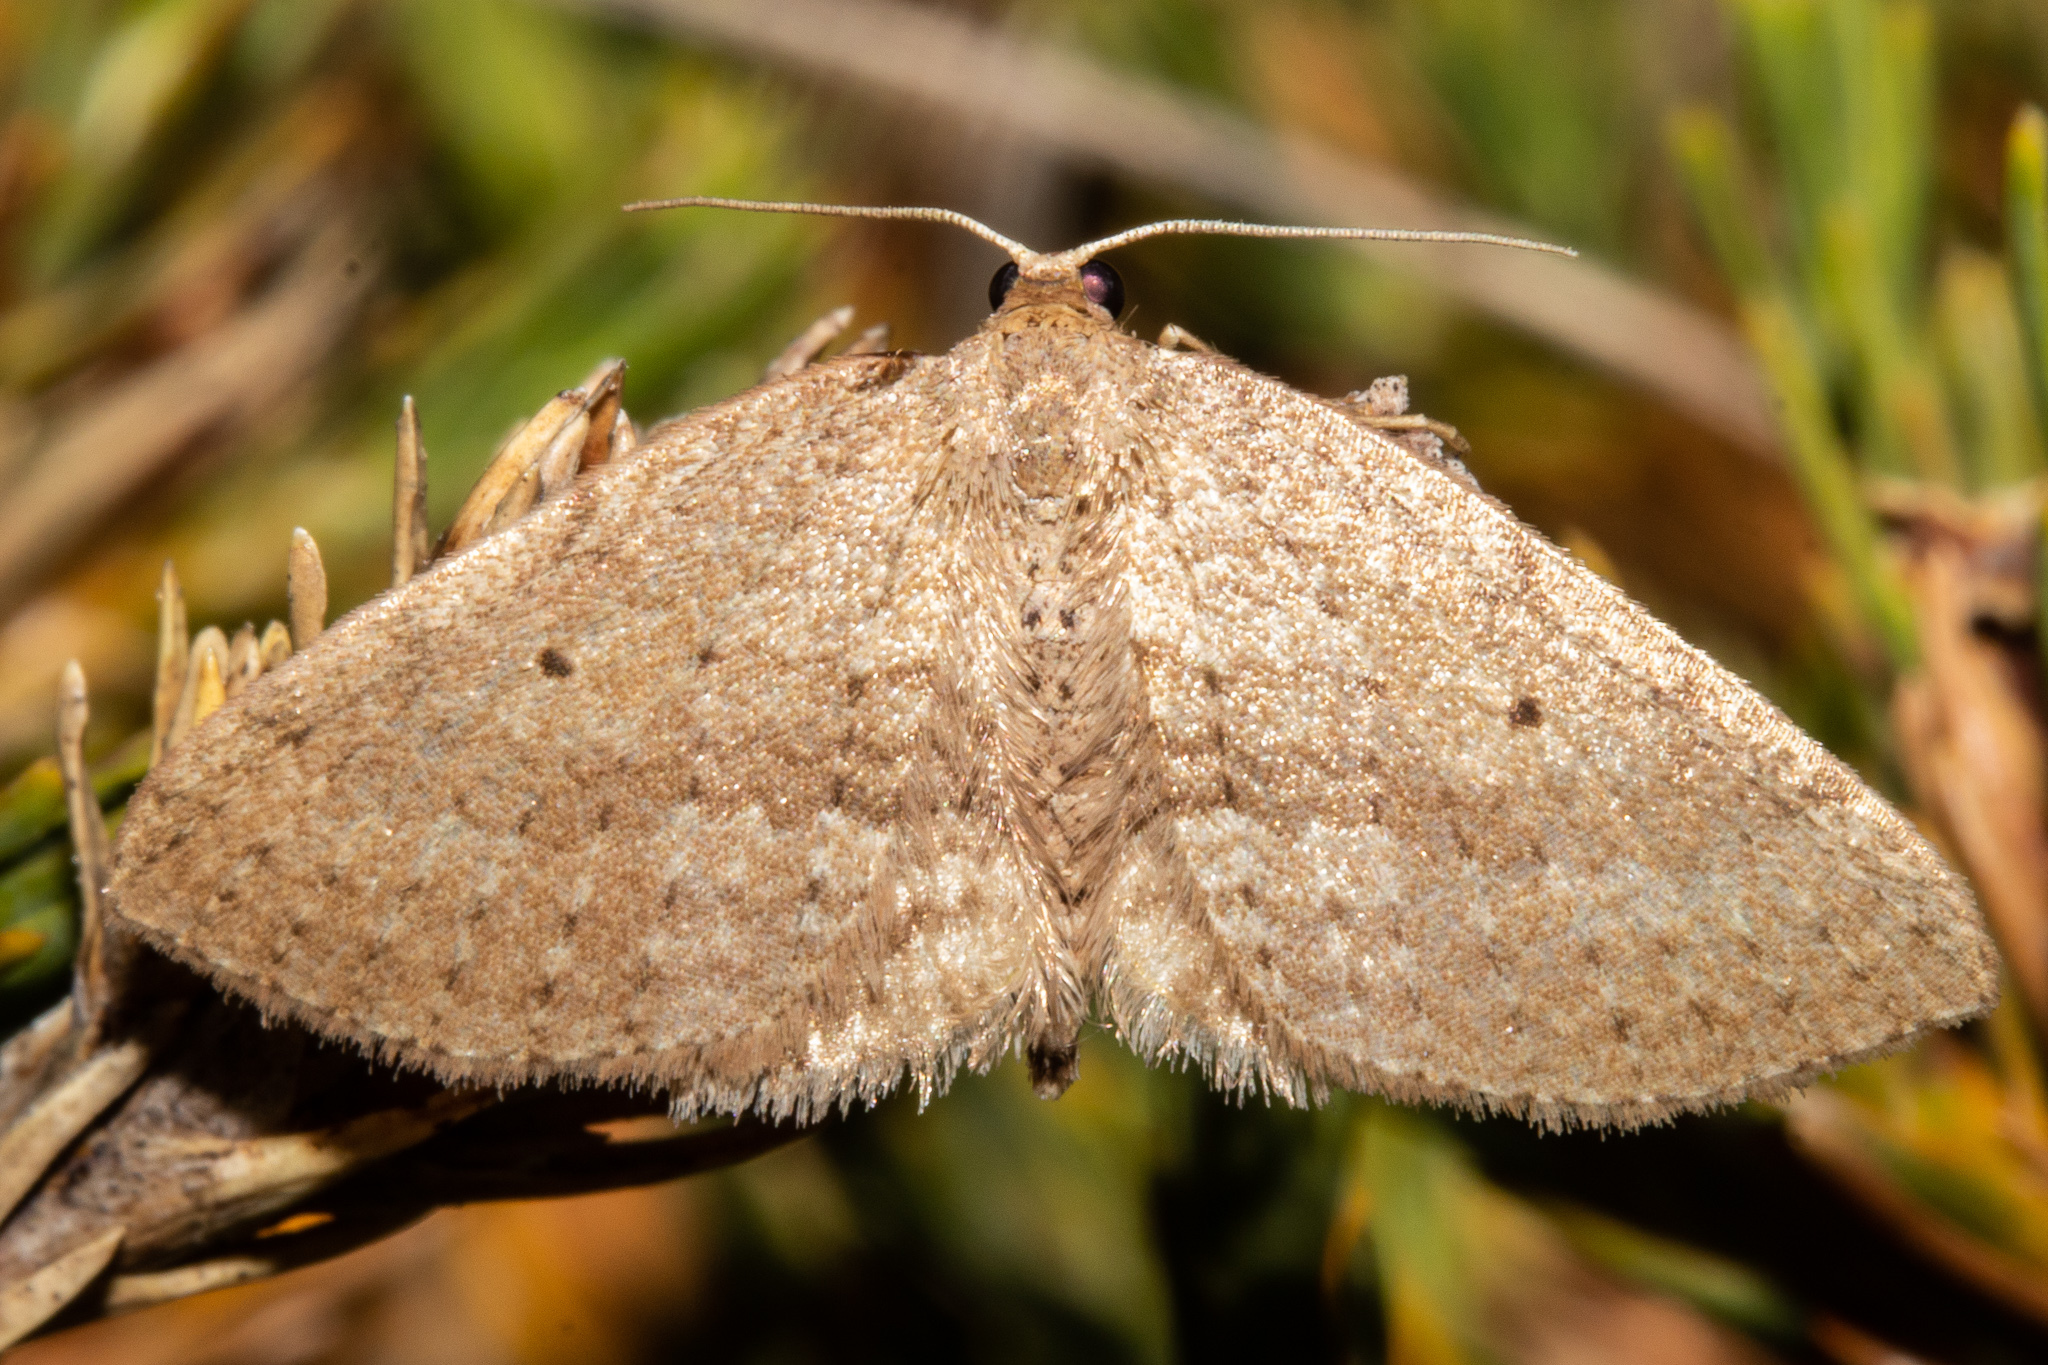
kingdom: Animalia
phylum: Arthropoda
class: Insecta
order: Lepidoptera
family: Geometridae
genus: Poecilasthena
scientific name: Poecilasthena schistaria
